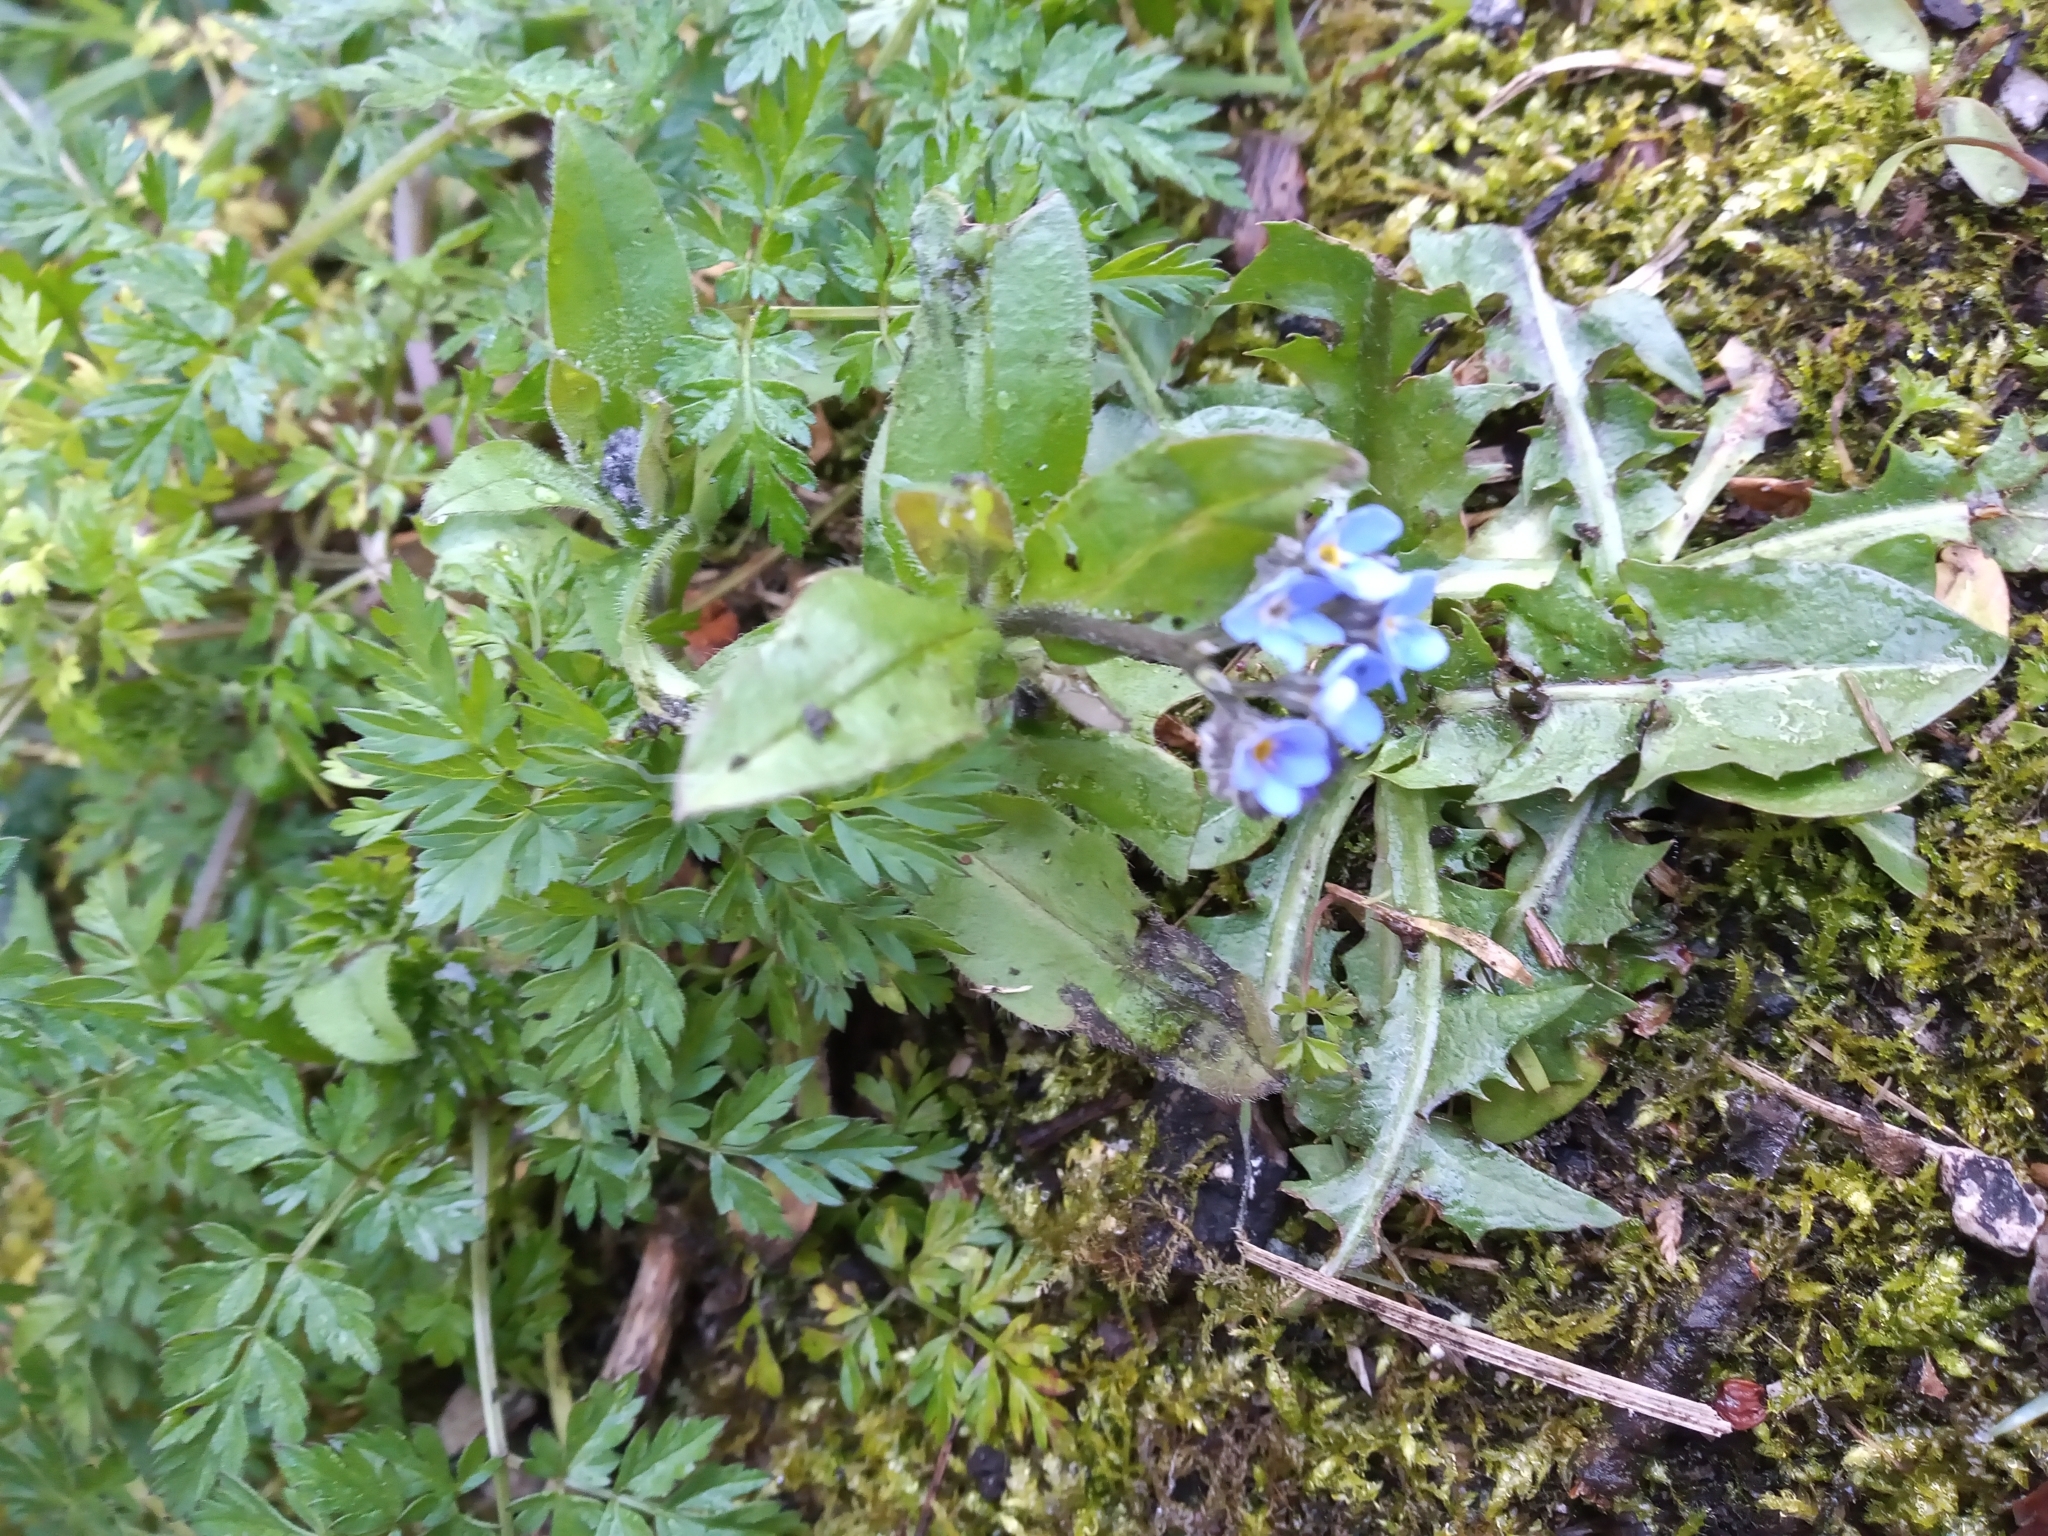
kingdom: Plantae
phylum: Tracheophyta
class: Magnoliopsida
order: Boraginales
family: Boraginaceae
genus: Myosotis
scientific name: Myosotis sylvatica
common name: Wood forget-me-not
